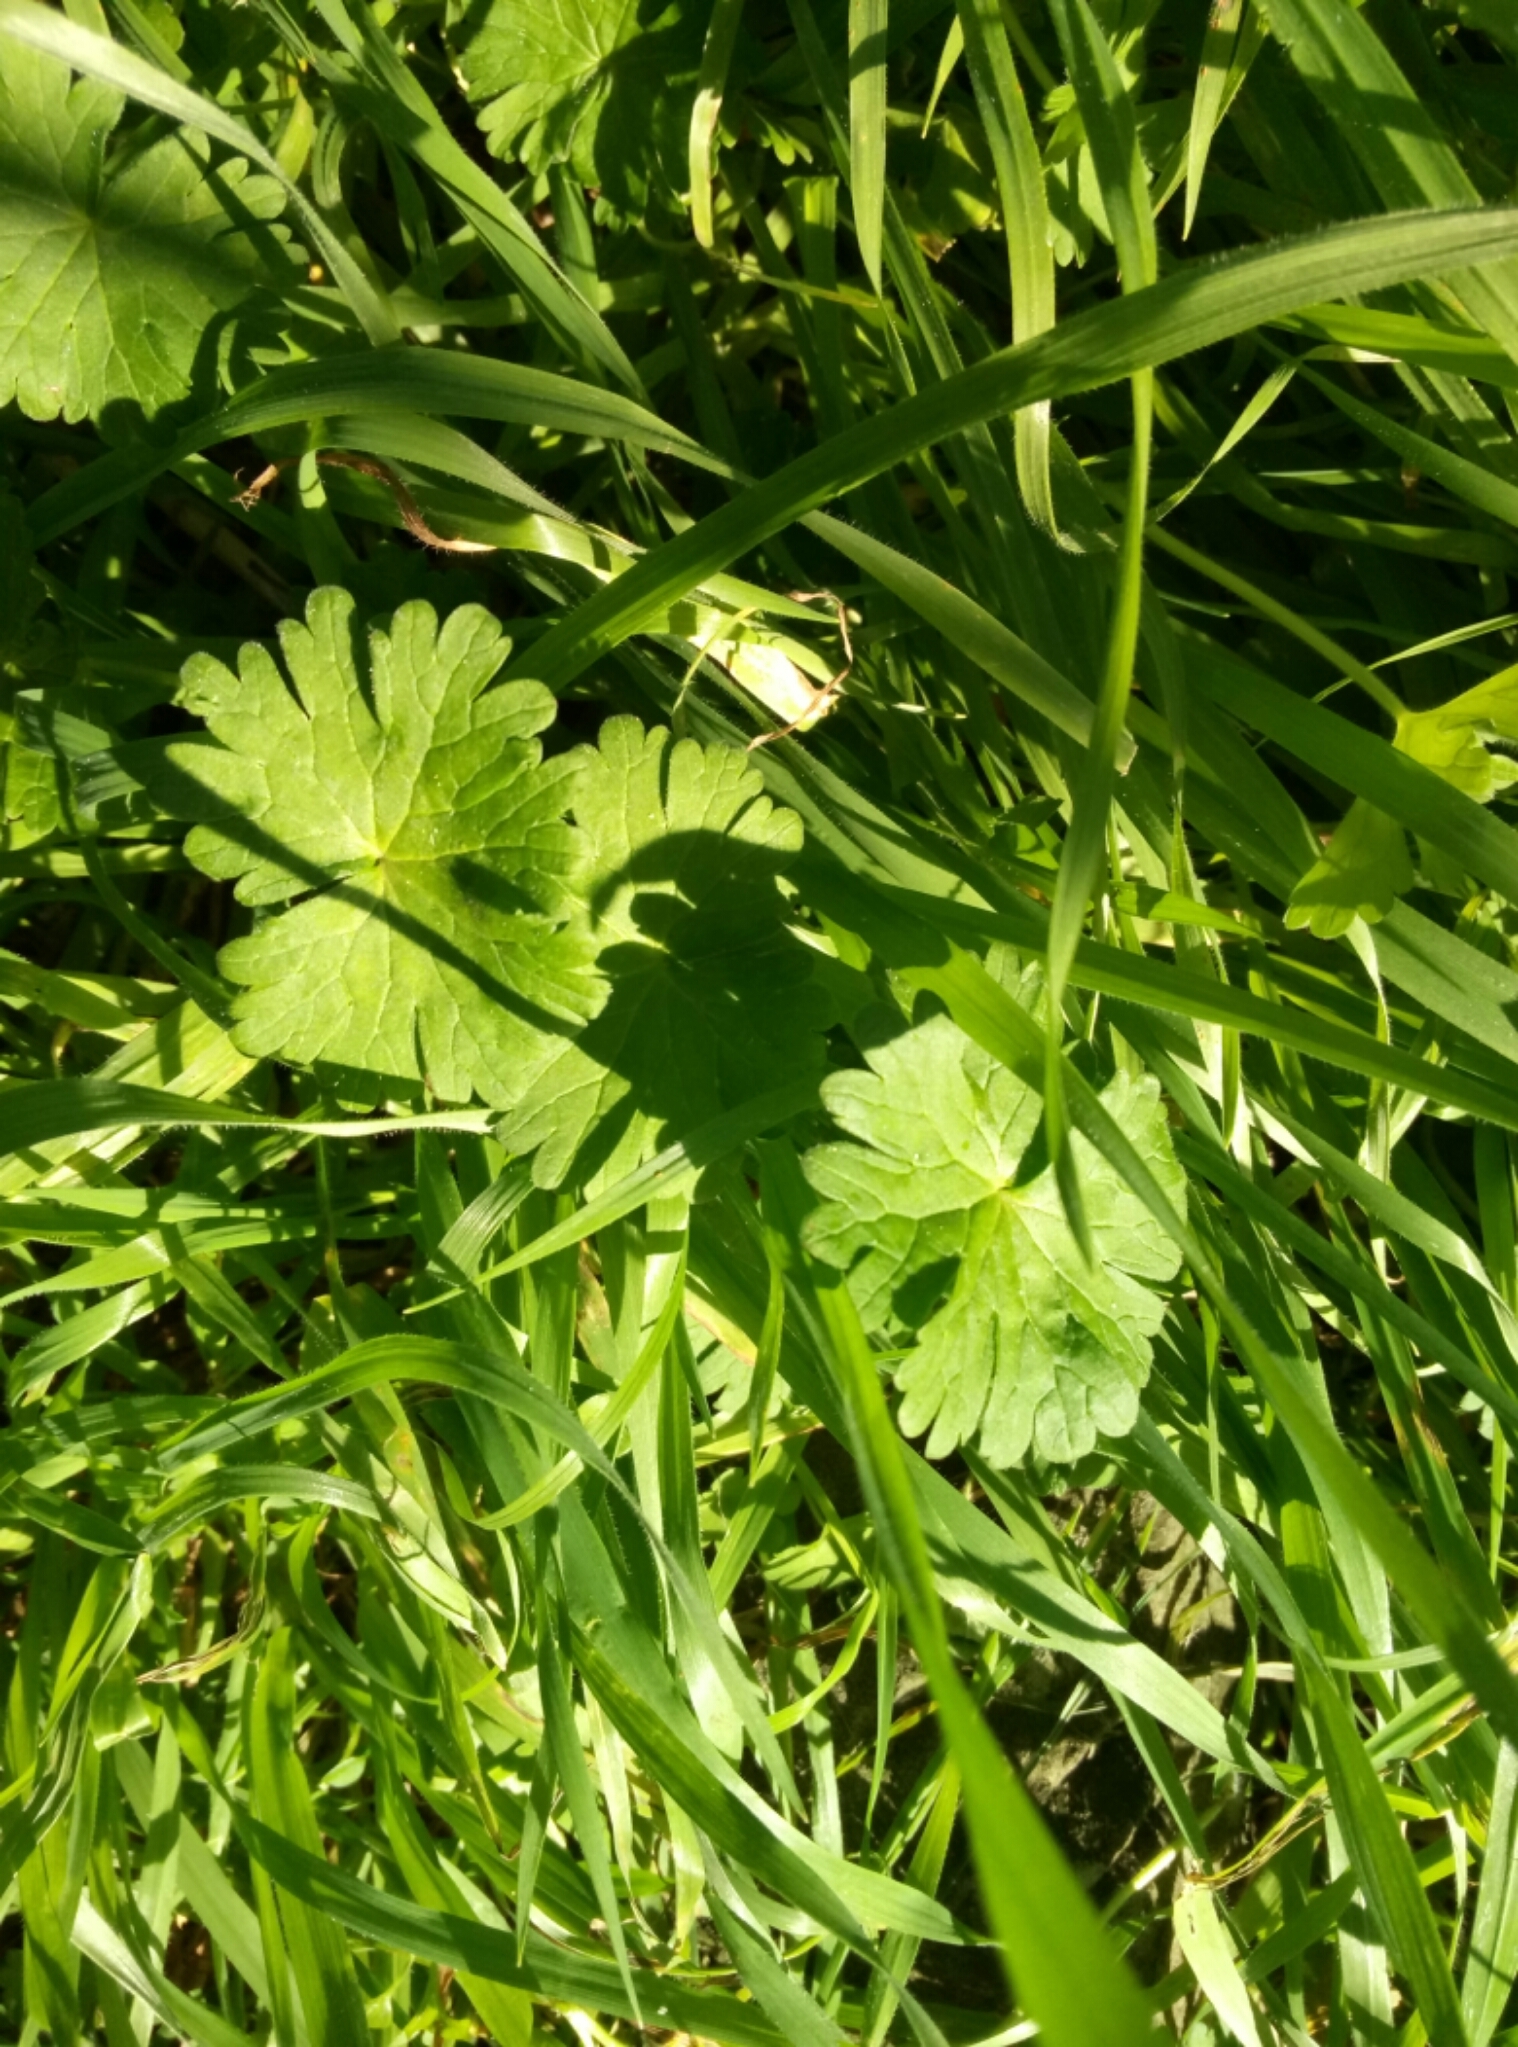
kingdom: Plantae
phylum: Tracheophyta
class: Magnoliopsida
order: Geraniales
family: Geraniaceae
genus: Geranium
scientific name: Geranium molle
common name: Dove's-foot crane's-bill
